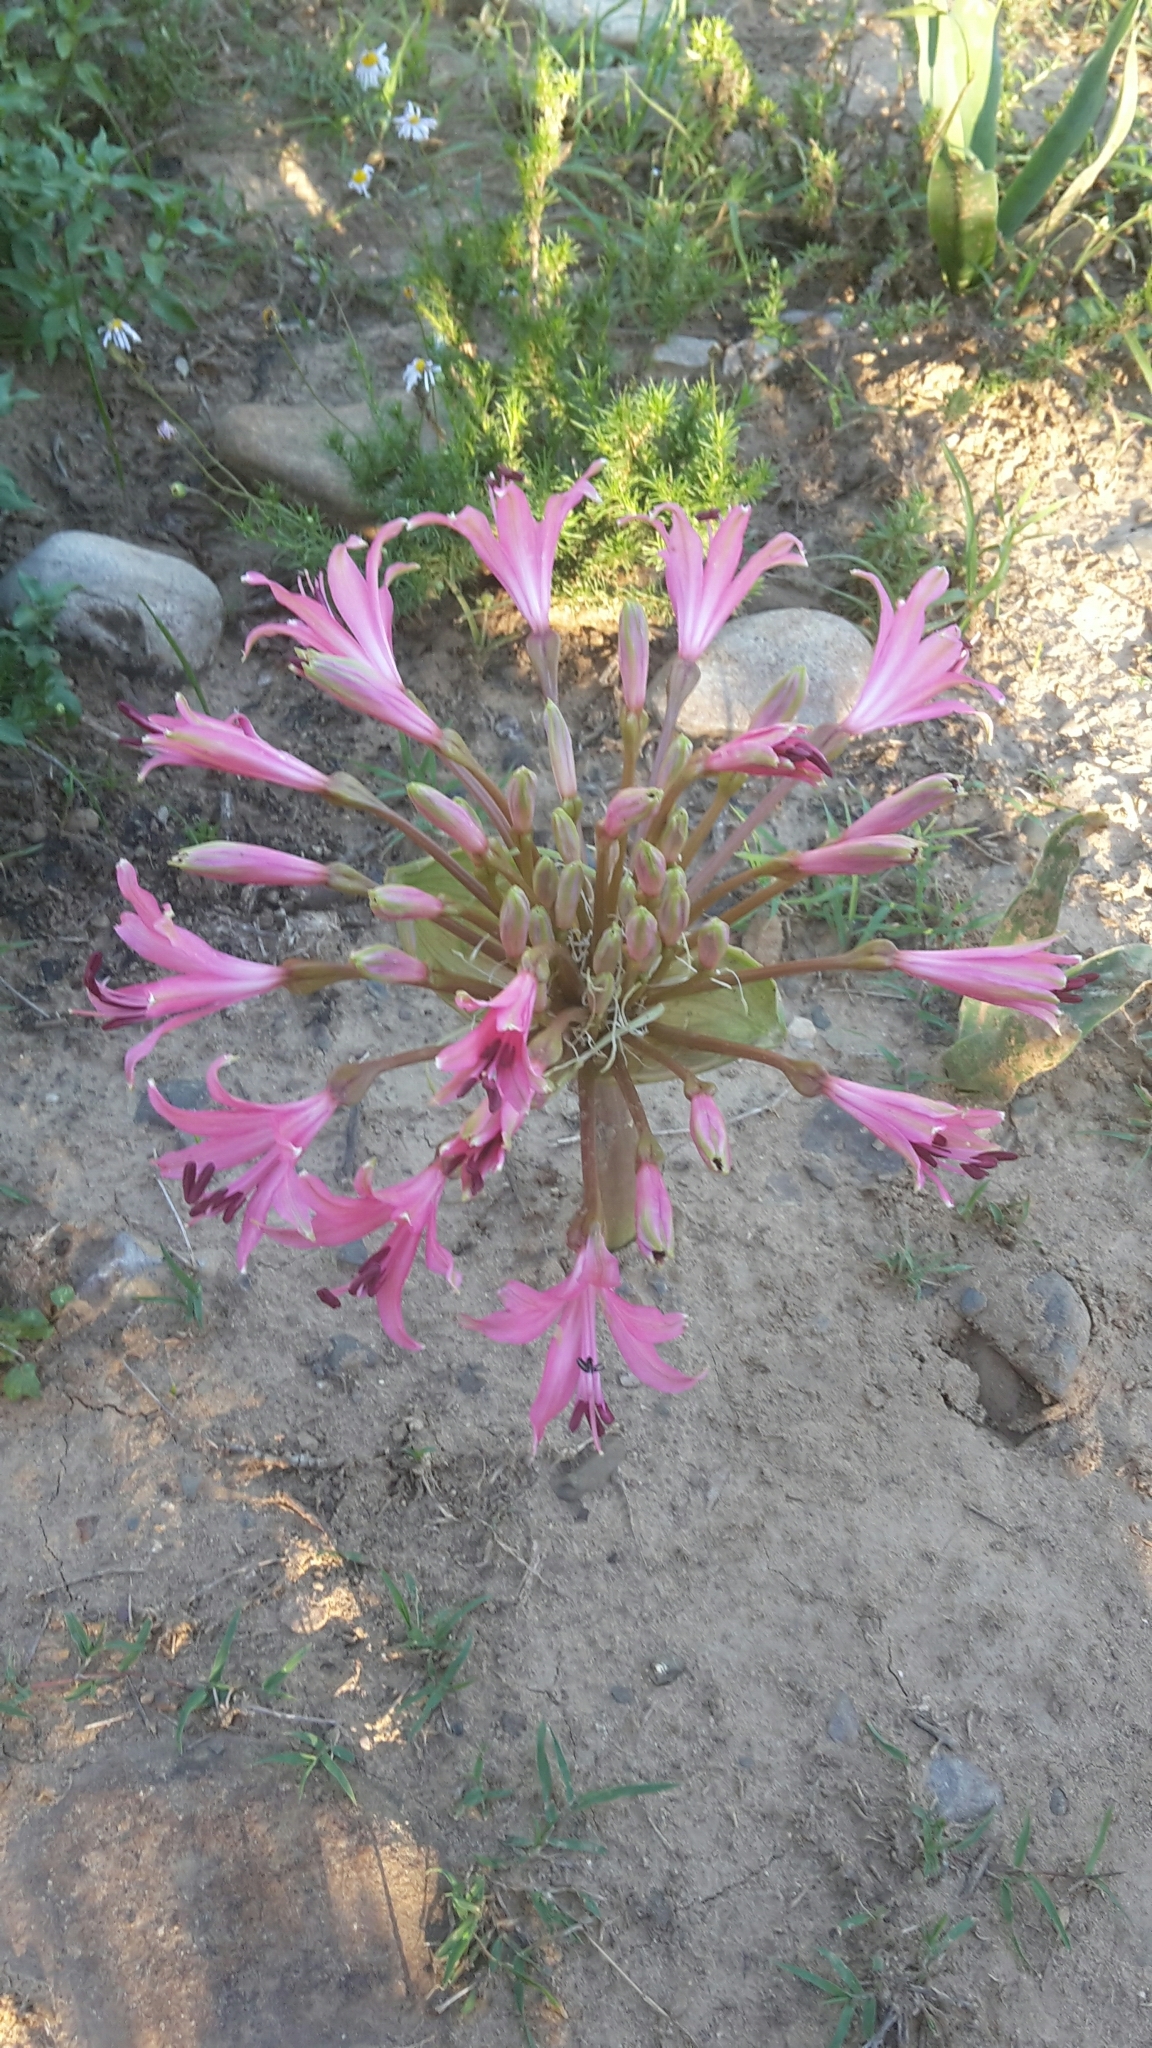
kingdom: Plantae
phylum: Tracheophyta
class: Liliopsida
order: Asparagales
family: Amaryllidaceae
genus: Brunsvigia
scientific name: Brunsvigia gregaria
